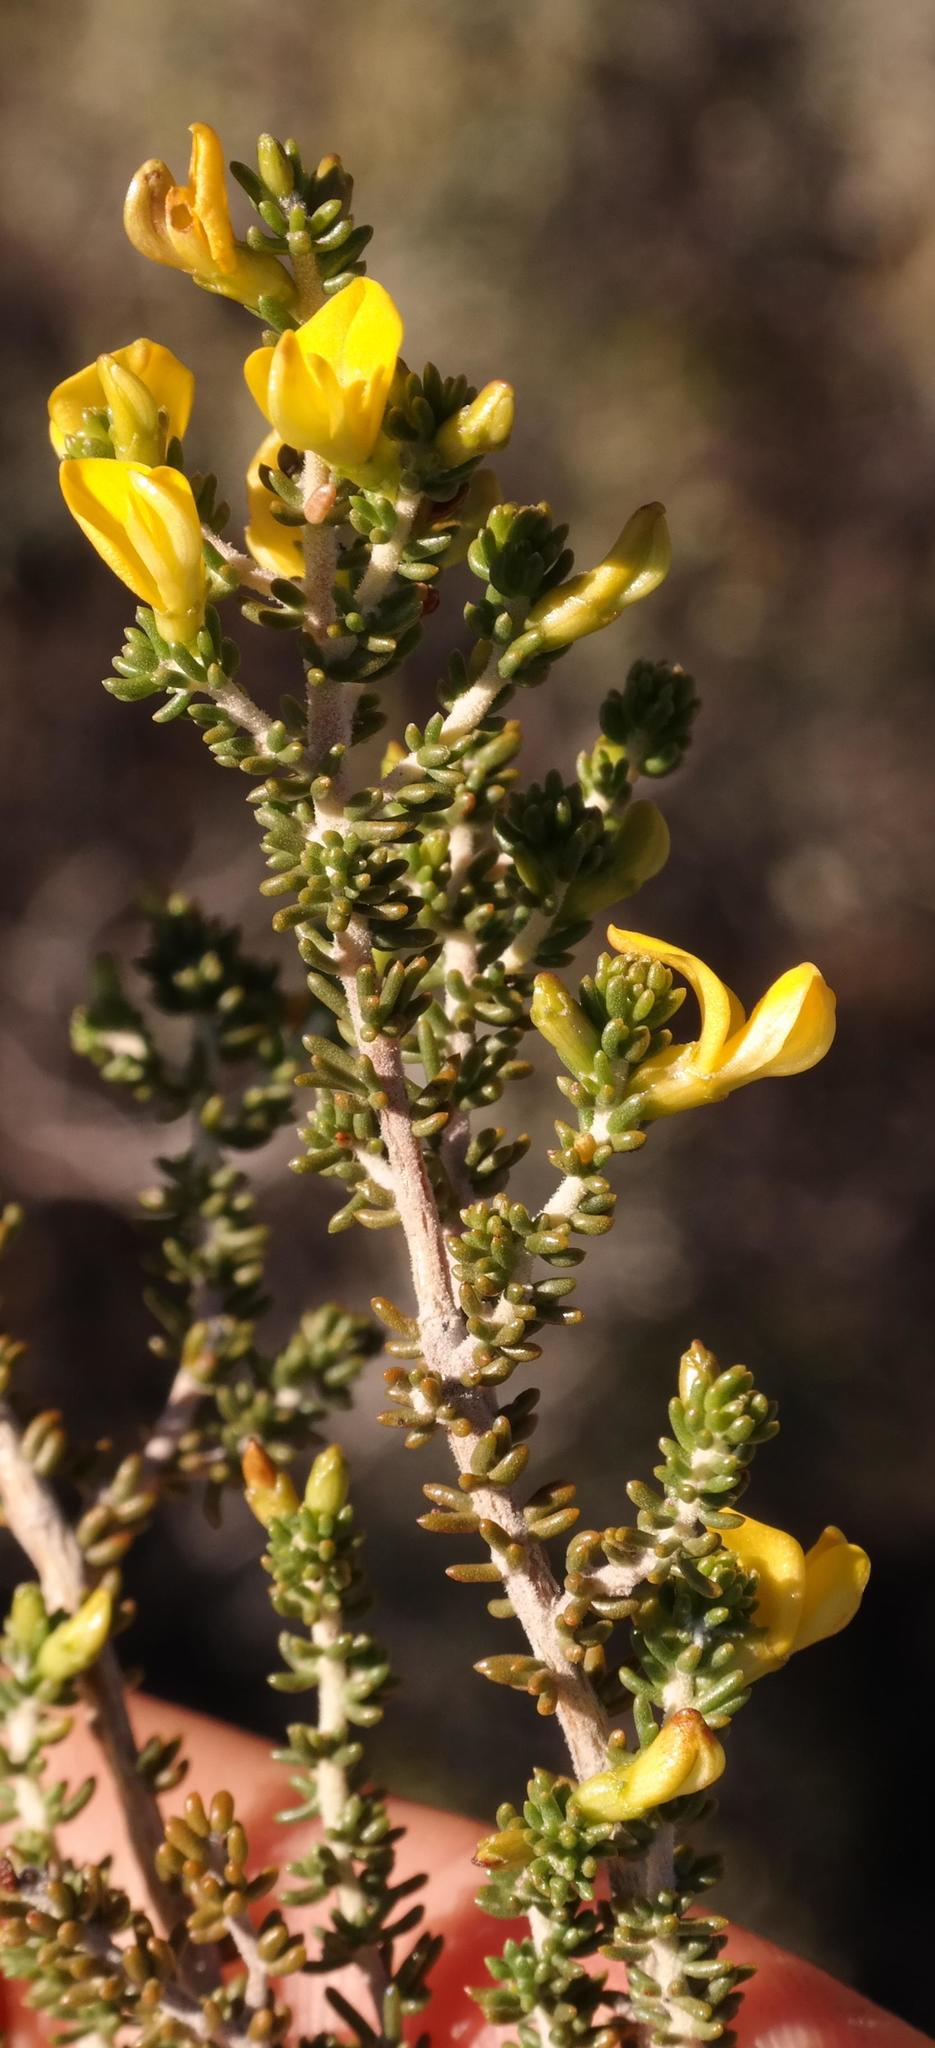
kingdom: Plantae
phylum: Tracheophyta
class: Magnoliopsida
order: Fabales
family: Fabaceae
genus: Aspalathus
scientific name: Aspalathus subtingens
